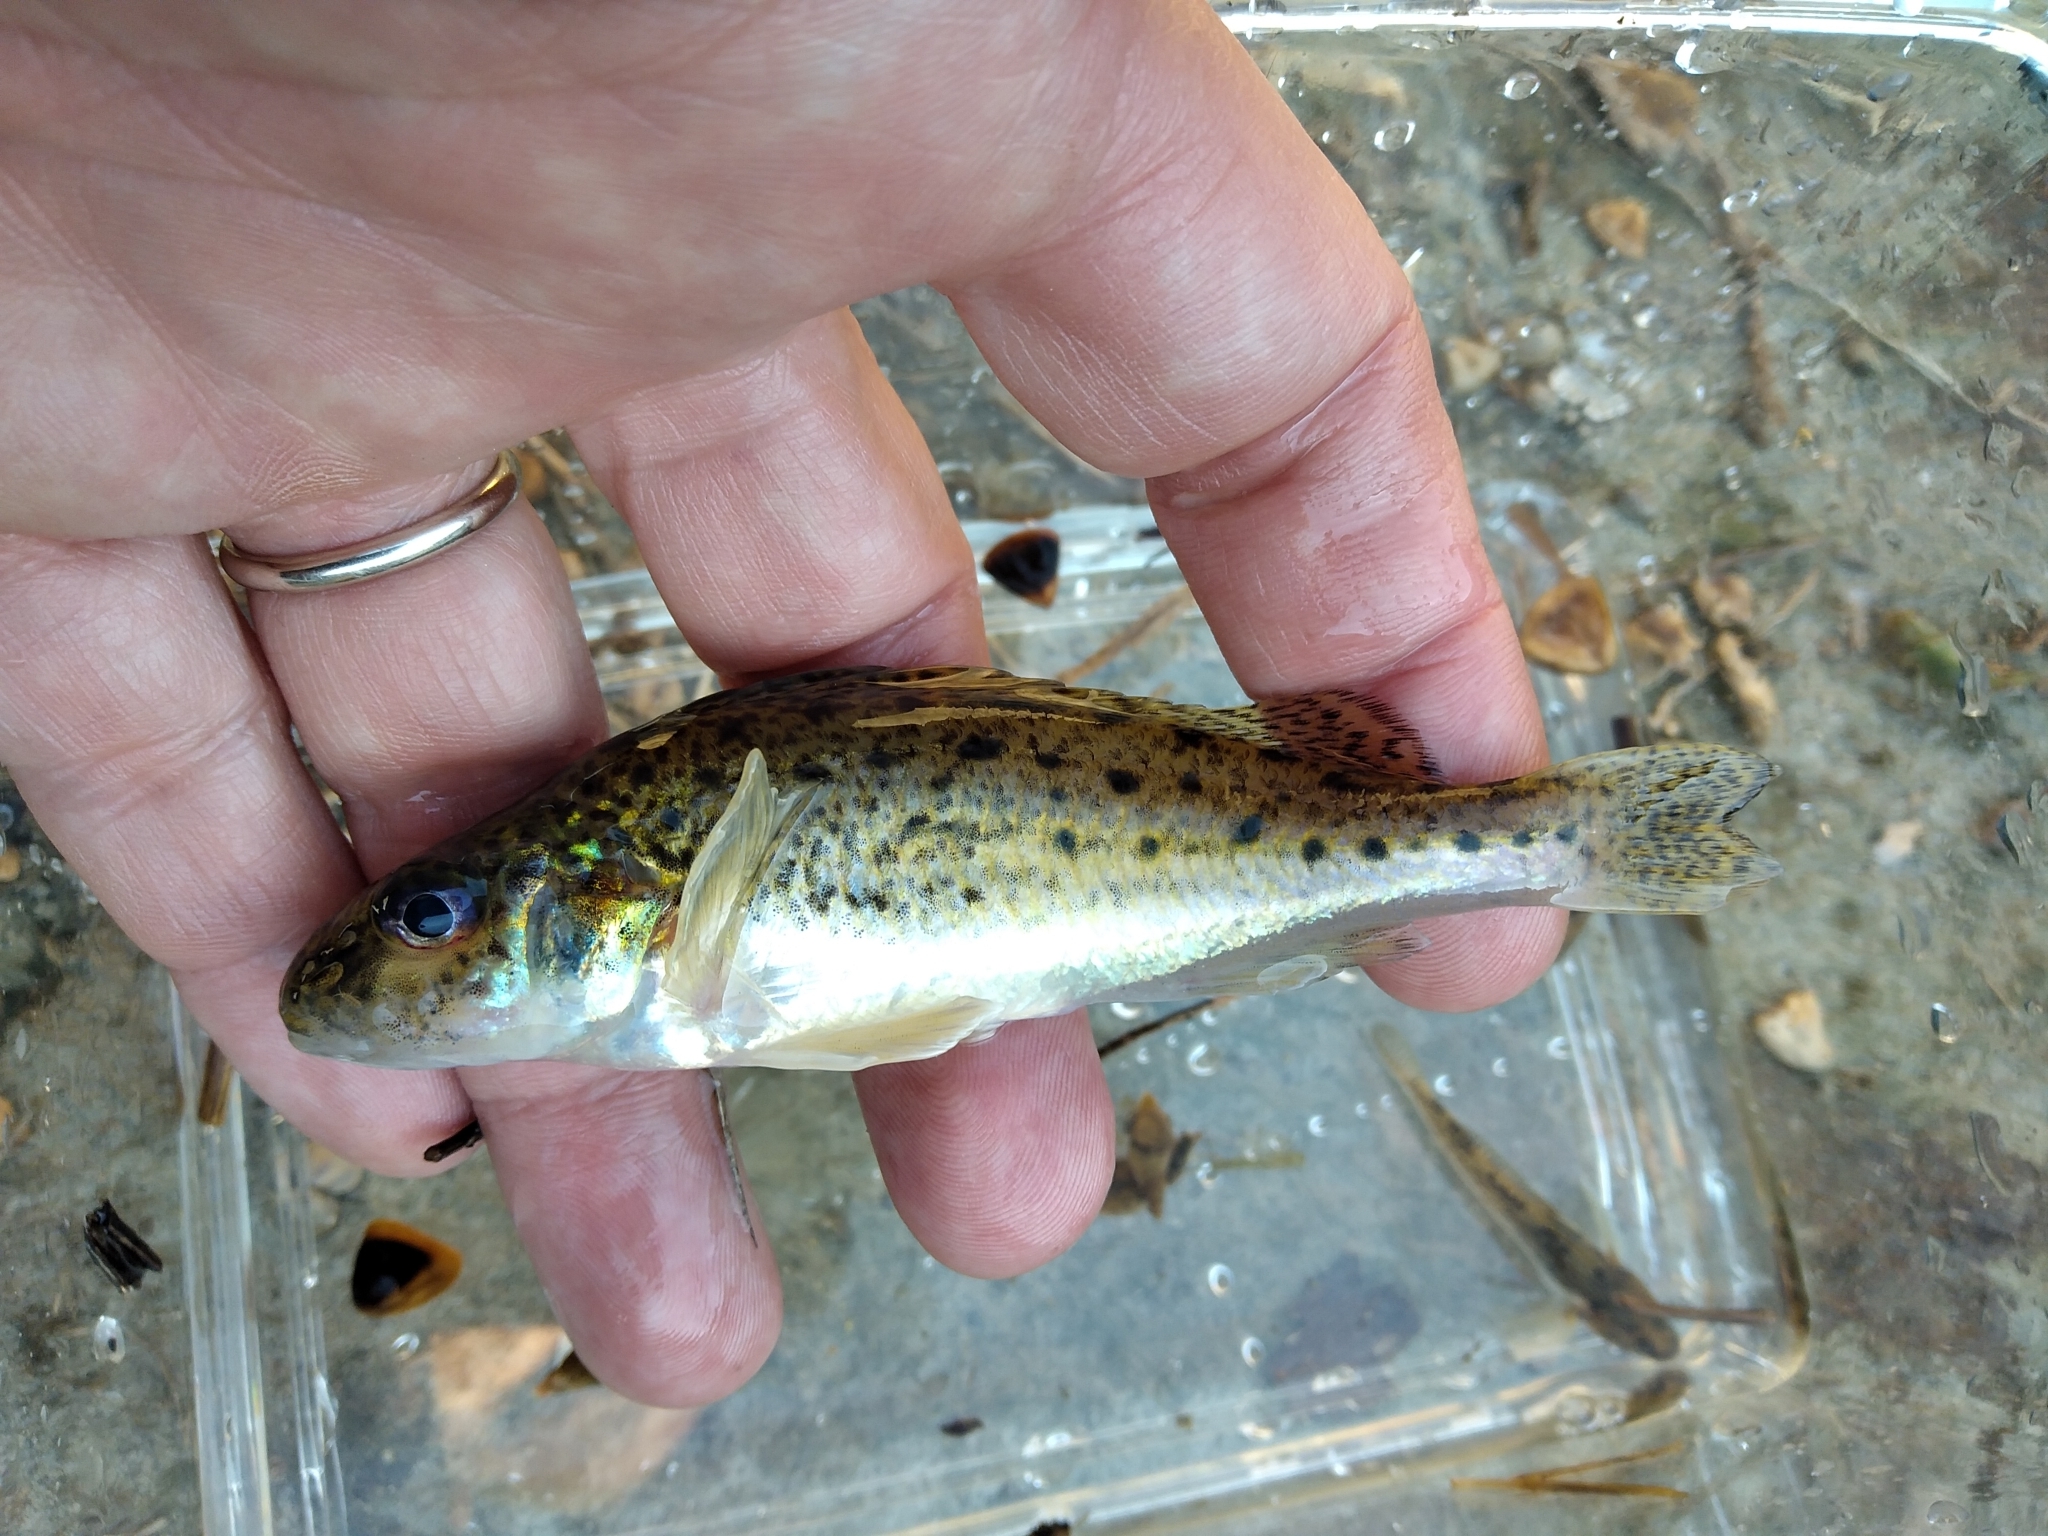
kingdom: Animalia
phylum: Chordata
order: Perciformes
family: Percidae
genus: Gymnocephalus
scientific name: Gymnocephalus cernua
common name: Ruffe
